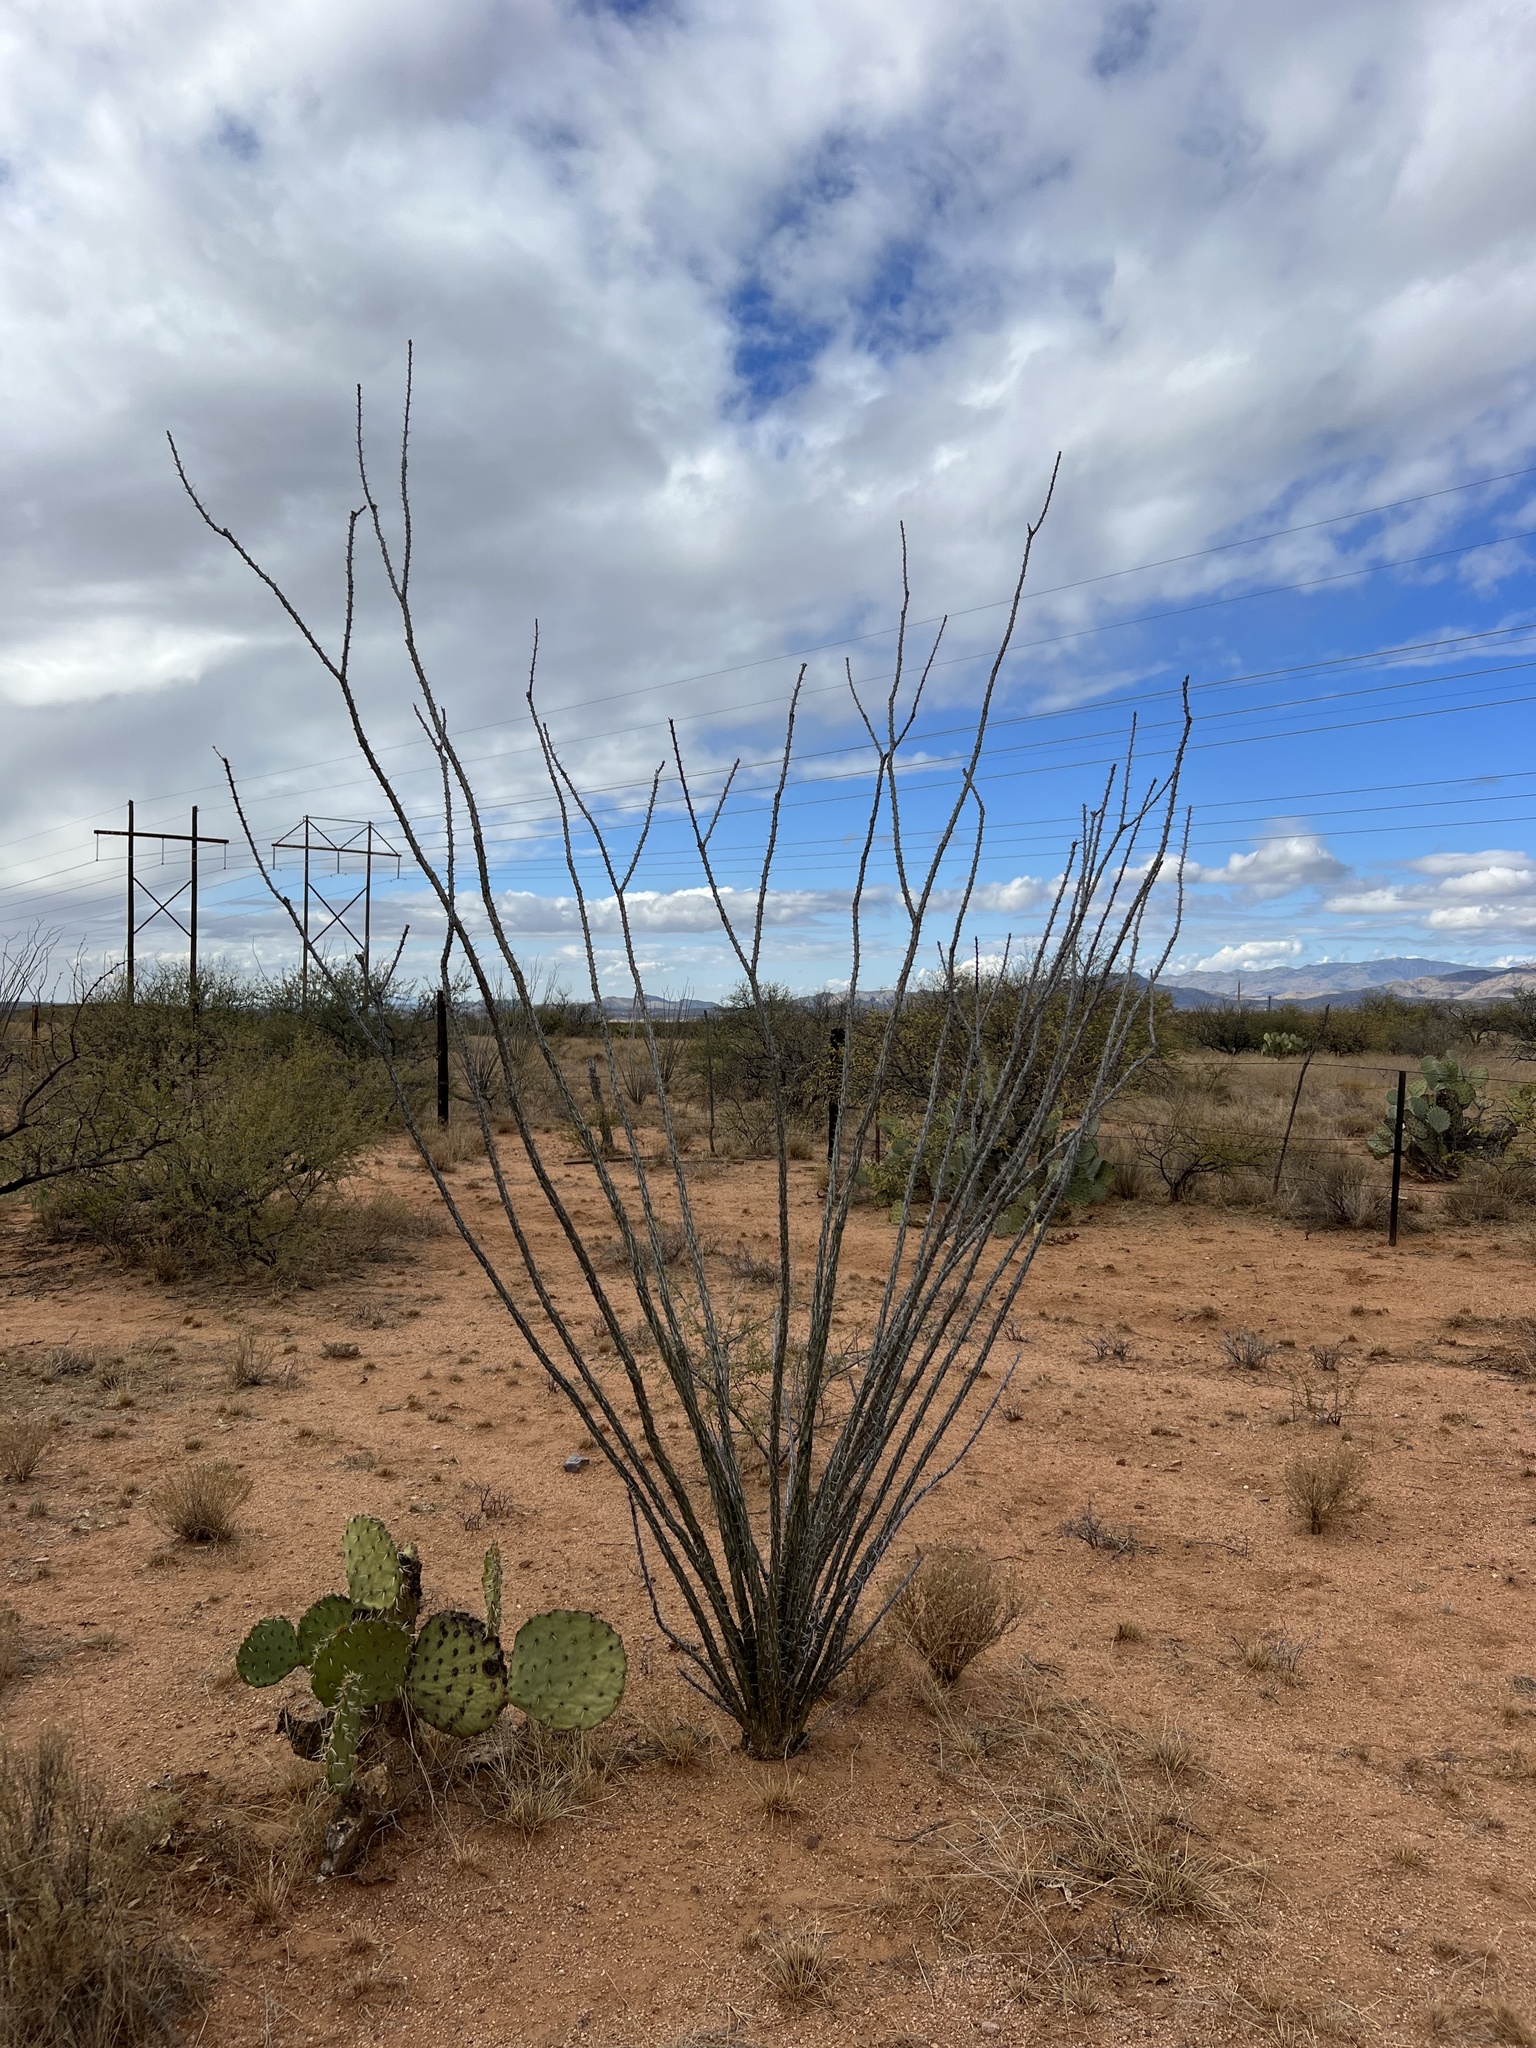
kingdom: Plantae
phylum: Tracheophyta
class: Magnoliopsida
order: Ericales
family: Fouquieriaceae
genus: Fouquieria
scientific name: Fouquieria splendens
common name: Vine-cactus
